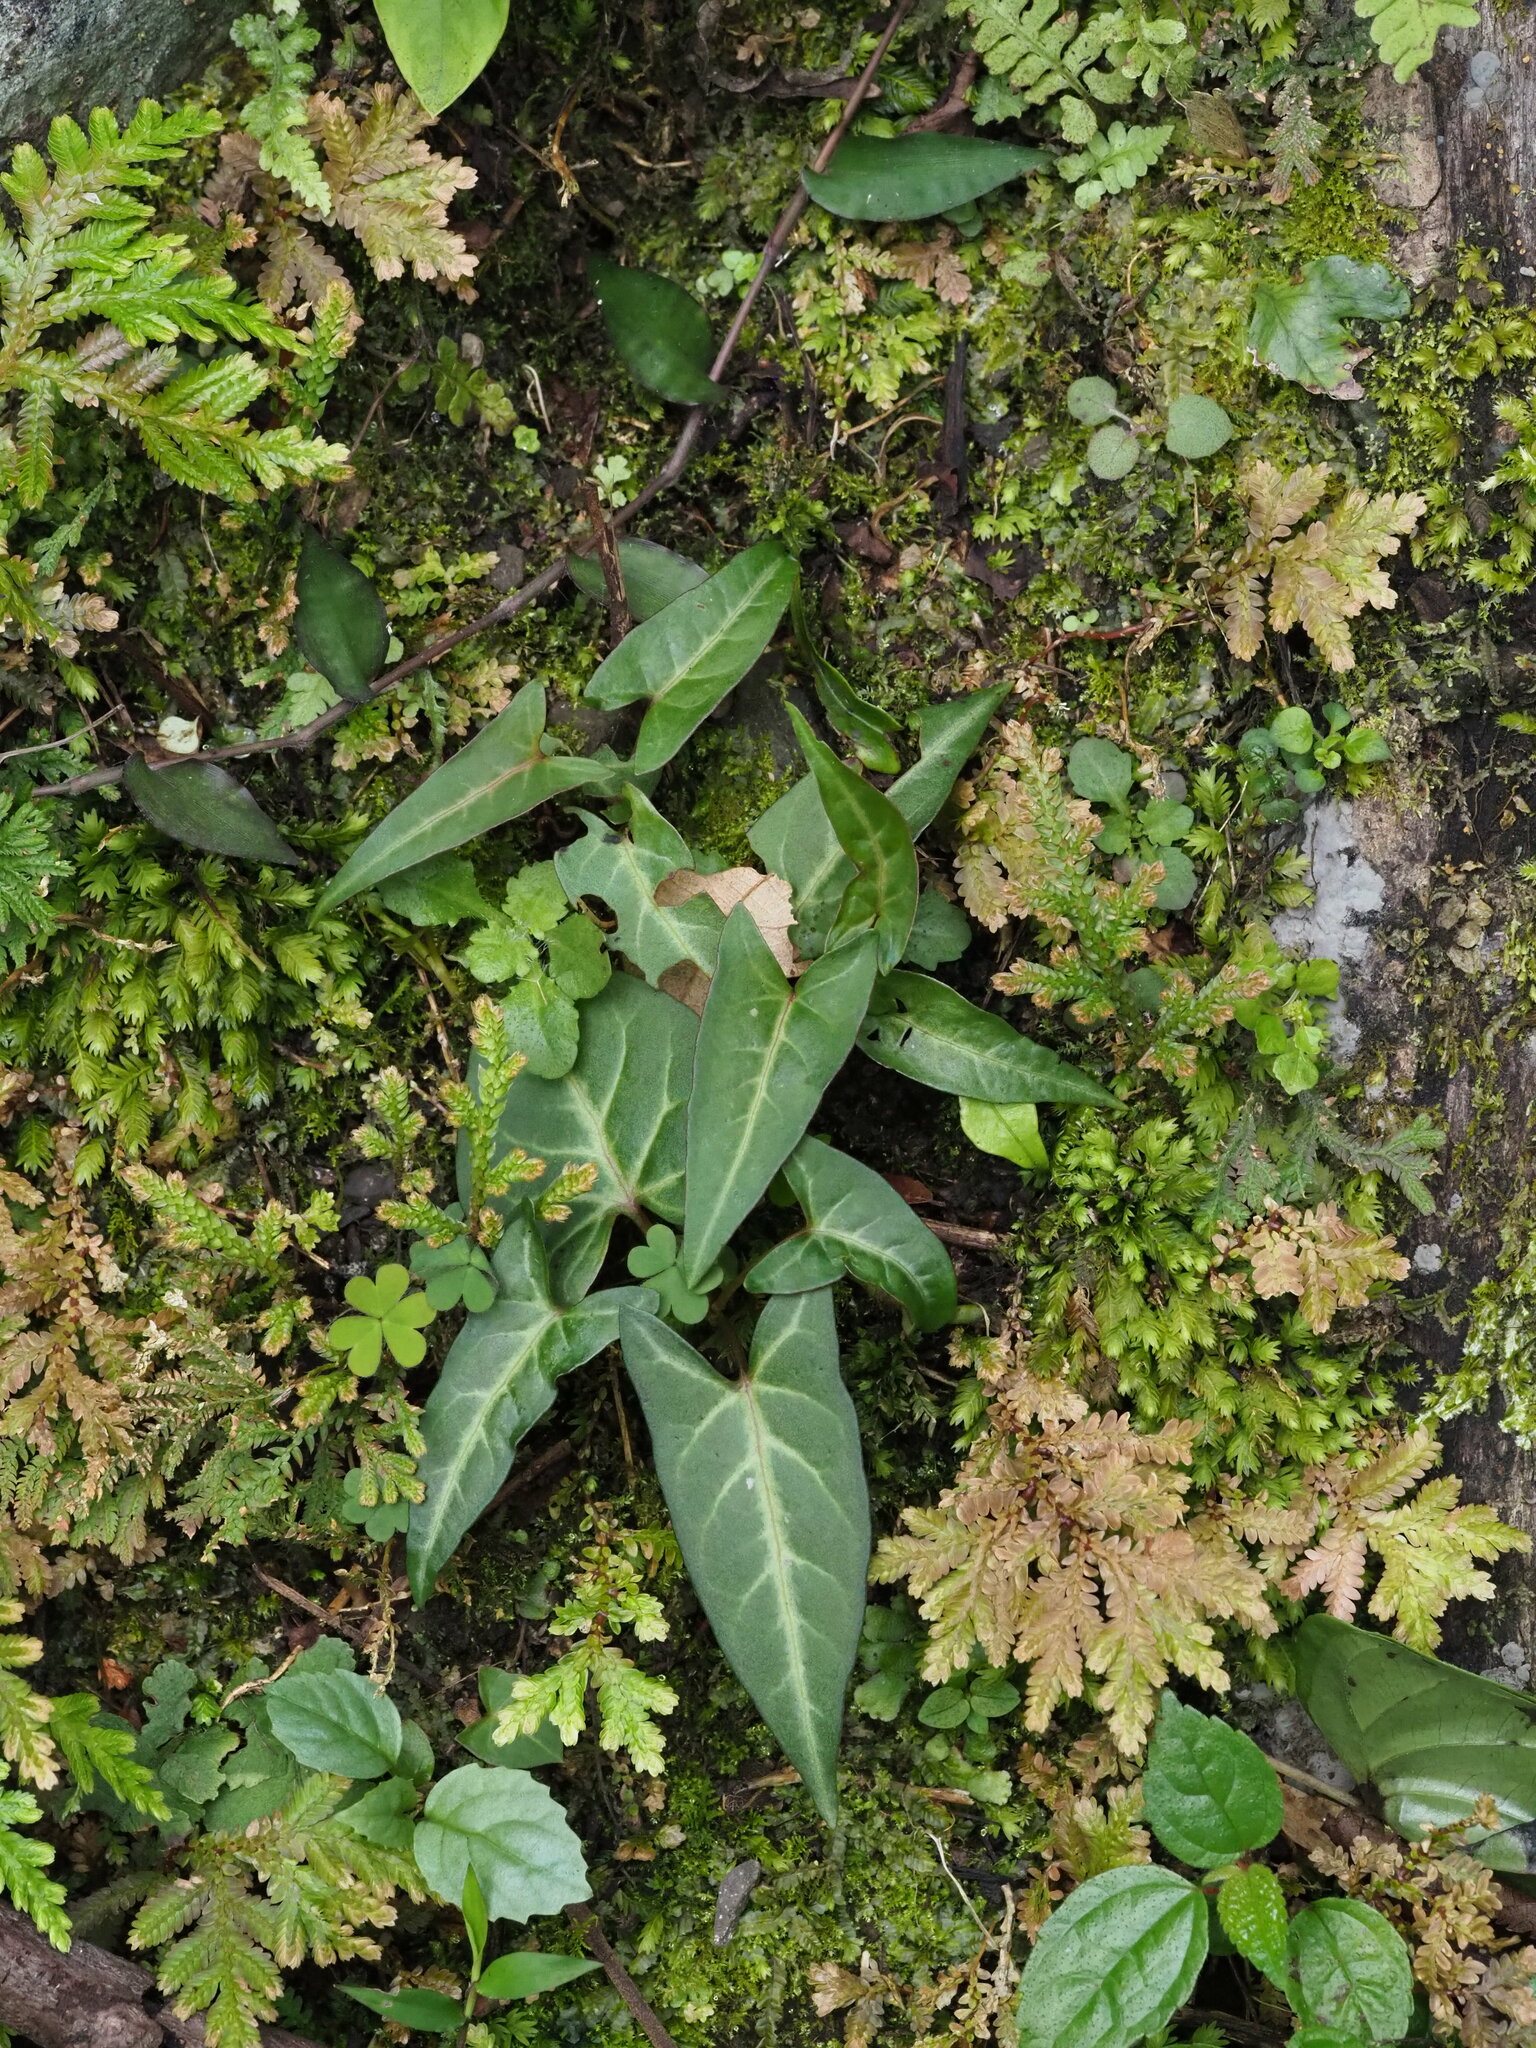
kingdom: Plantae
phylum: Tracheophyta
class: Magnoliopsida
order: Caryophyllales
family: Polygonaceae
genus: Reynoutria
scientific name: Reynoutria multiflora
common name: Chinese fleeceflower
